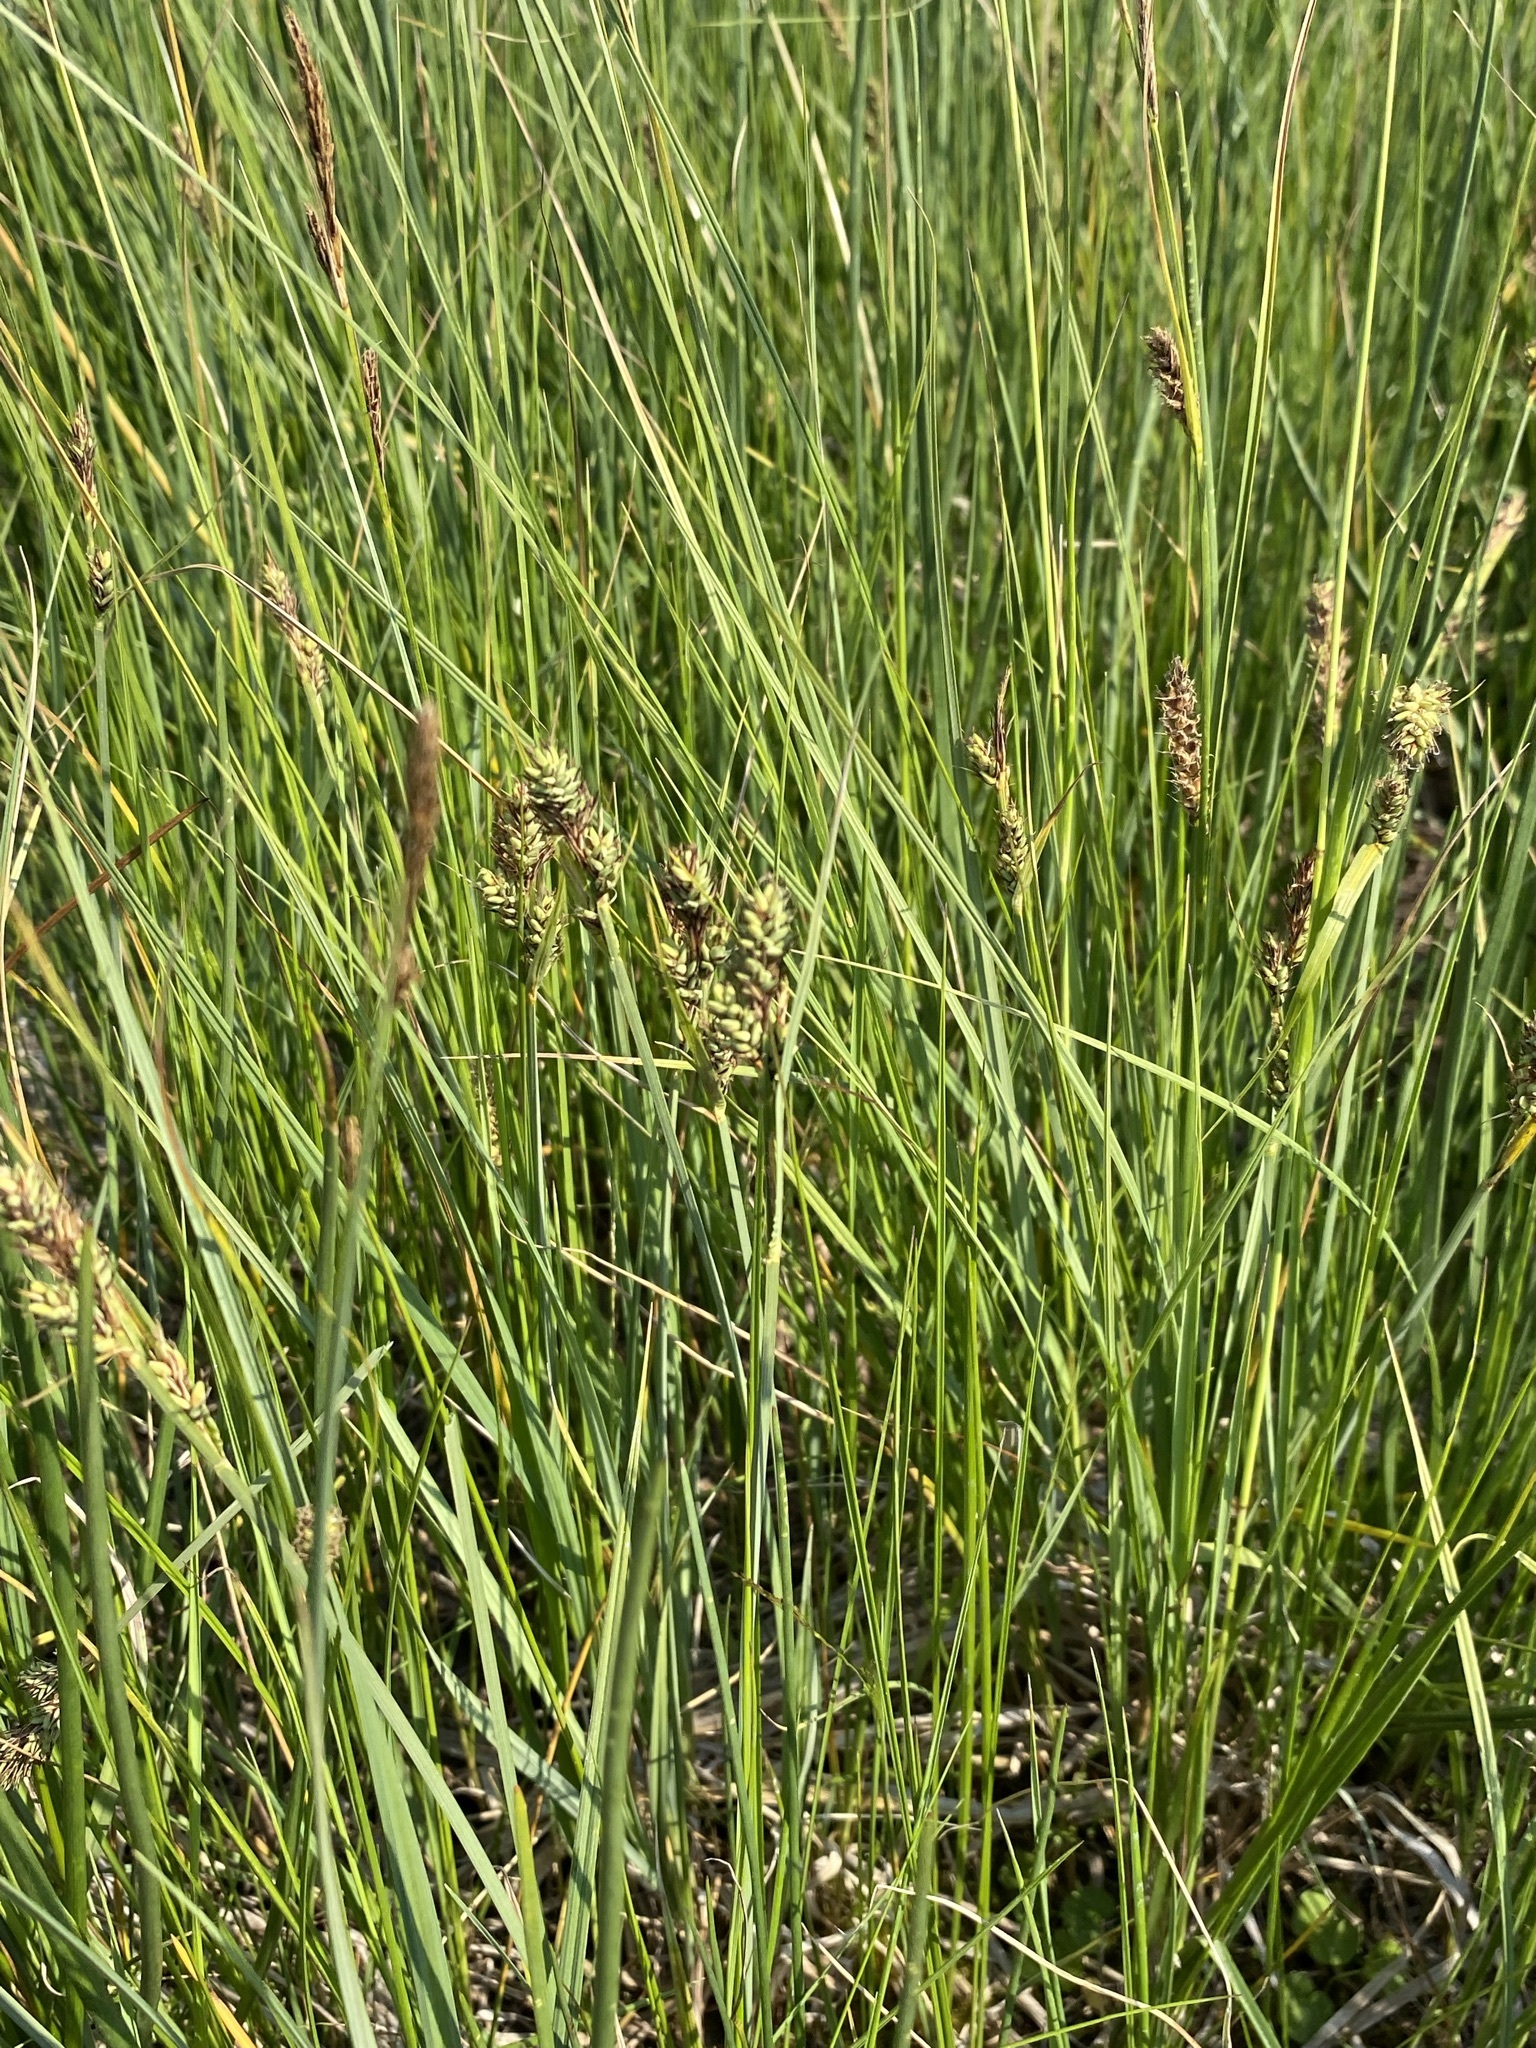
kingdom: Plantae
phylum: Tracheophyta
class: Liliopsida
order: Poales
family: Cyperaceae
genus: Carex
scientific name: Carex buxbaumii
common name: Club sedge
